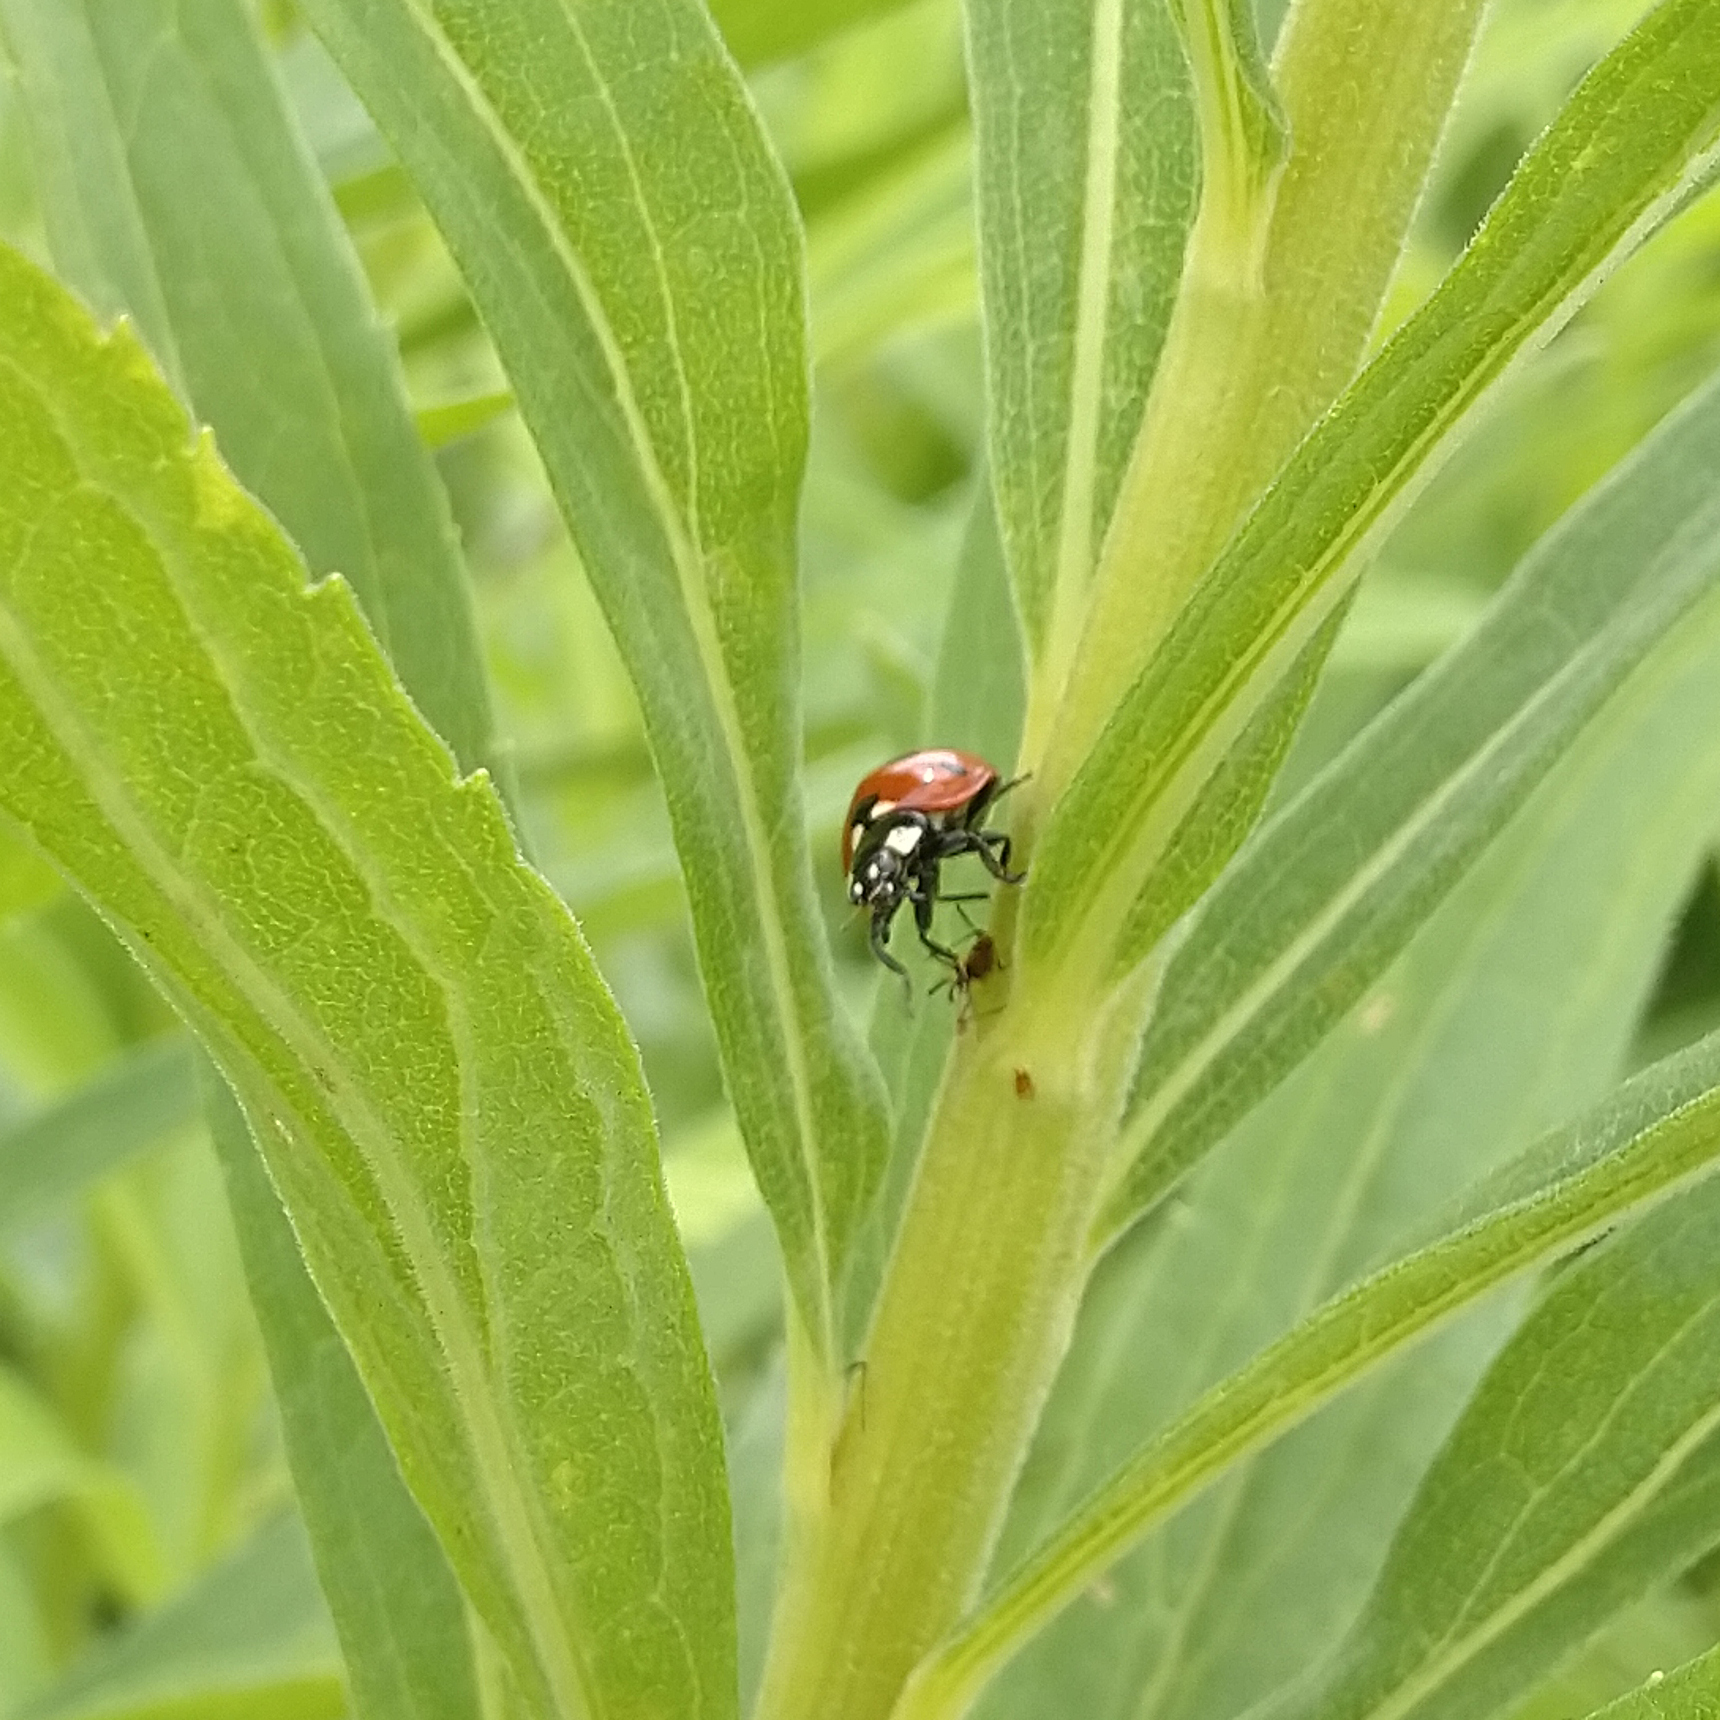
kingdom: Animalia
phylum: Arthropoda
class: Insecta
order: Coleoptera
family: Coccinellidae
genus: Coccinella
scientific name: Coccinella septempunctata
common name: Sevenspotted lady beetle
